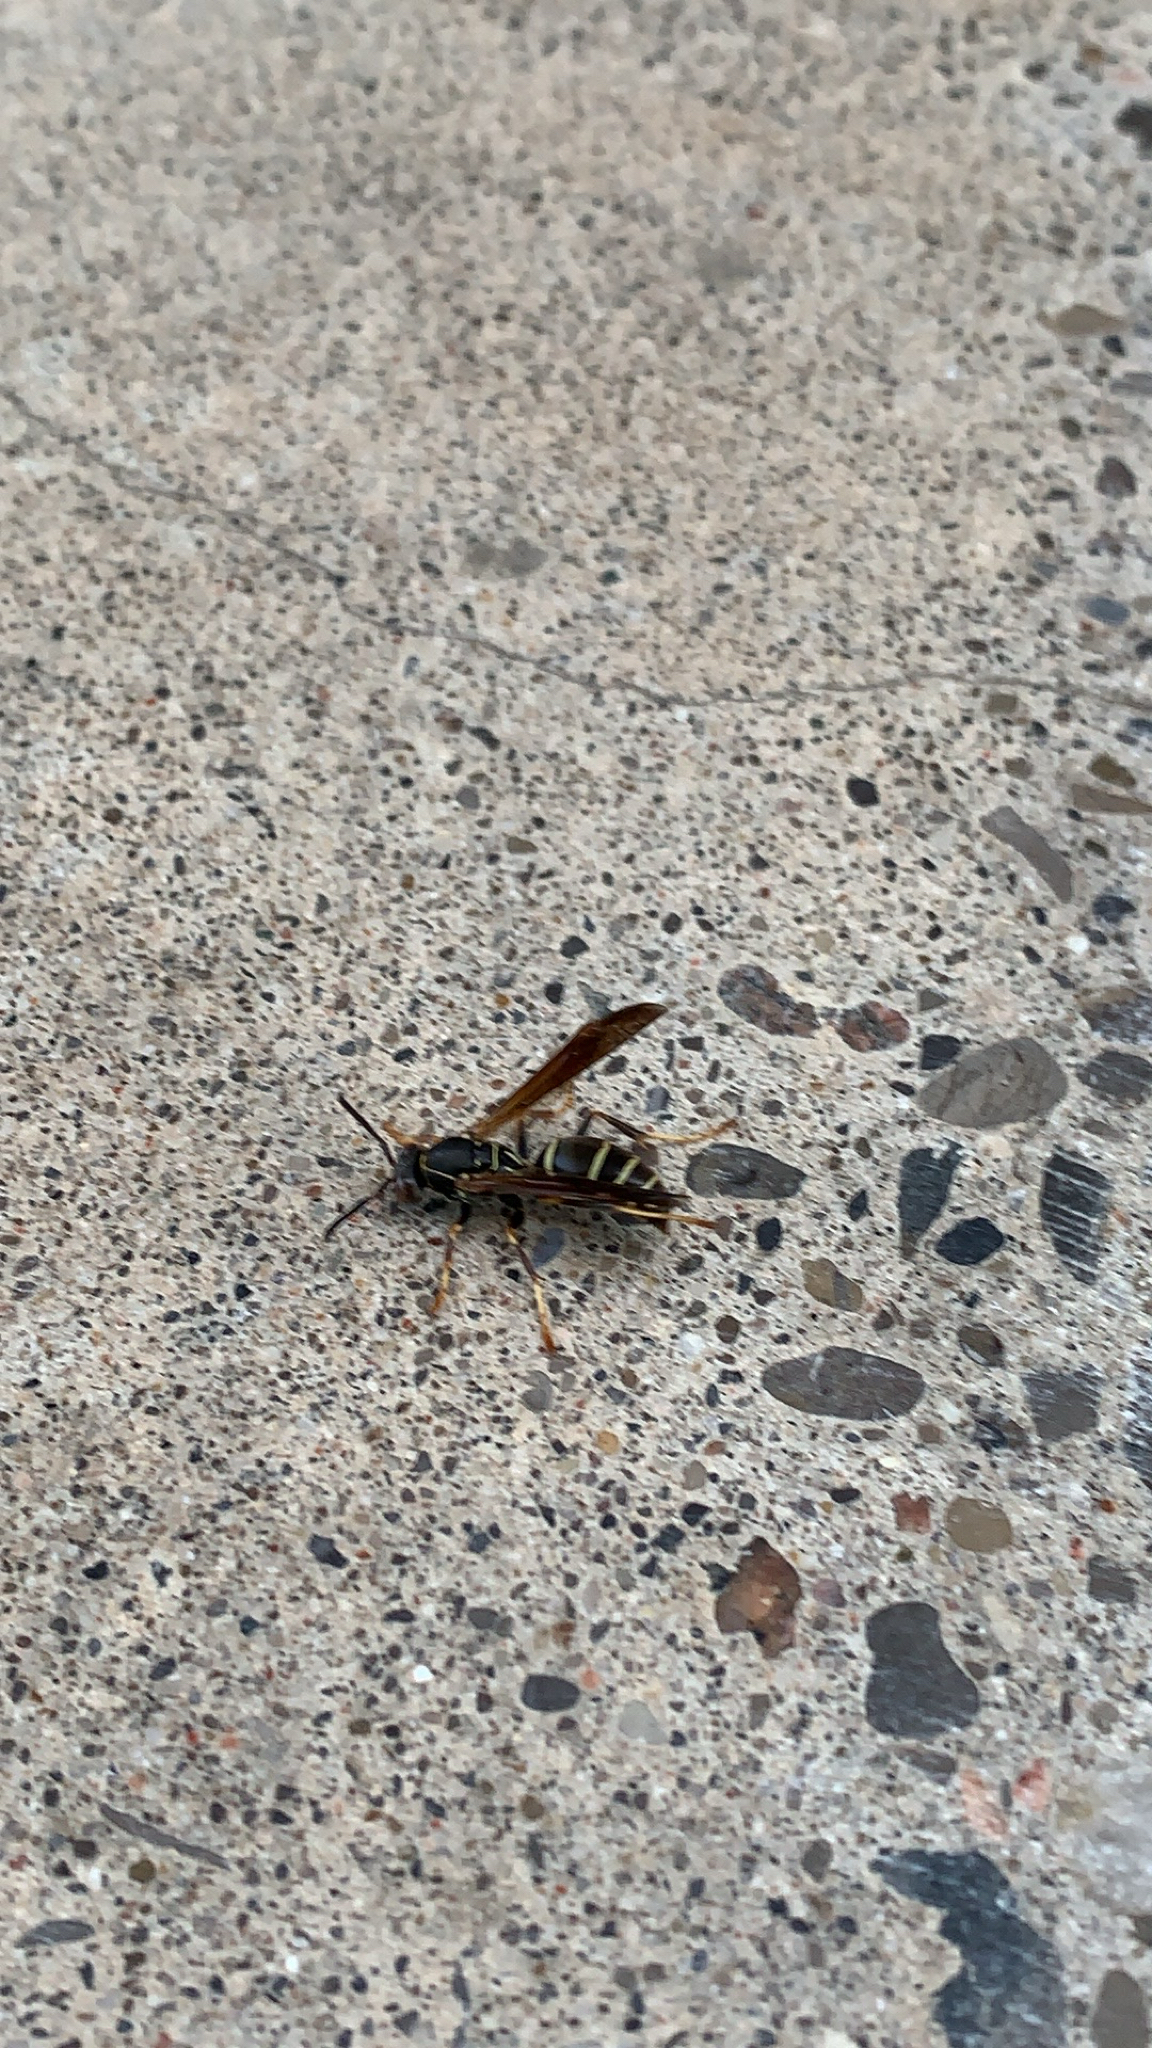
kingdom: Animalia
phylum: Arthropoda
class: Insecta
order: Hymenoptera
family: Eumenidae
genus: Polistes
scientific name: Polistes fuscatus
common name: Dark paper wasp
